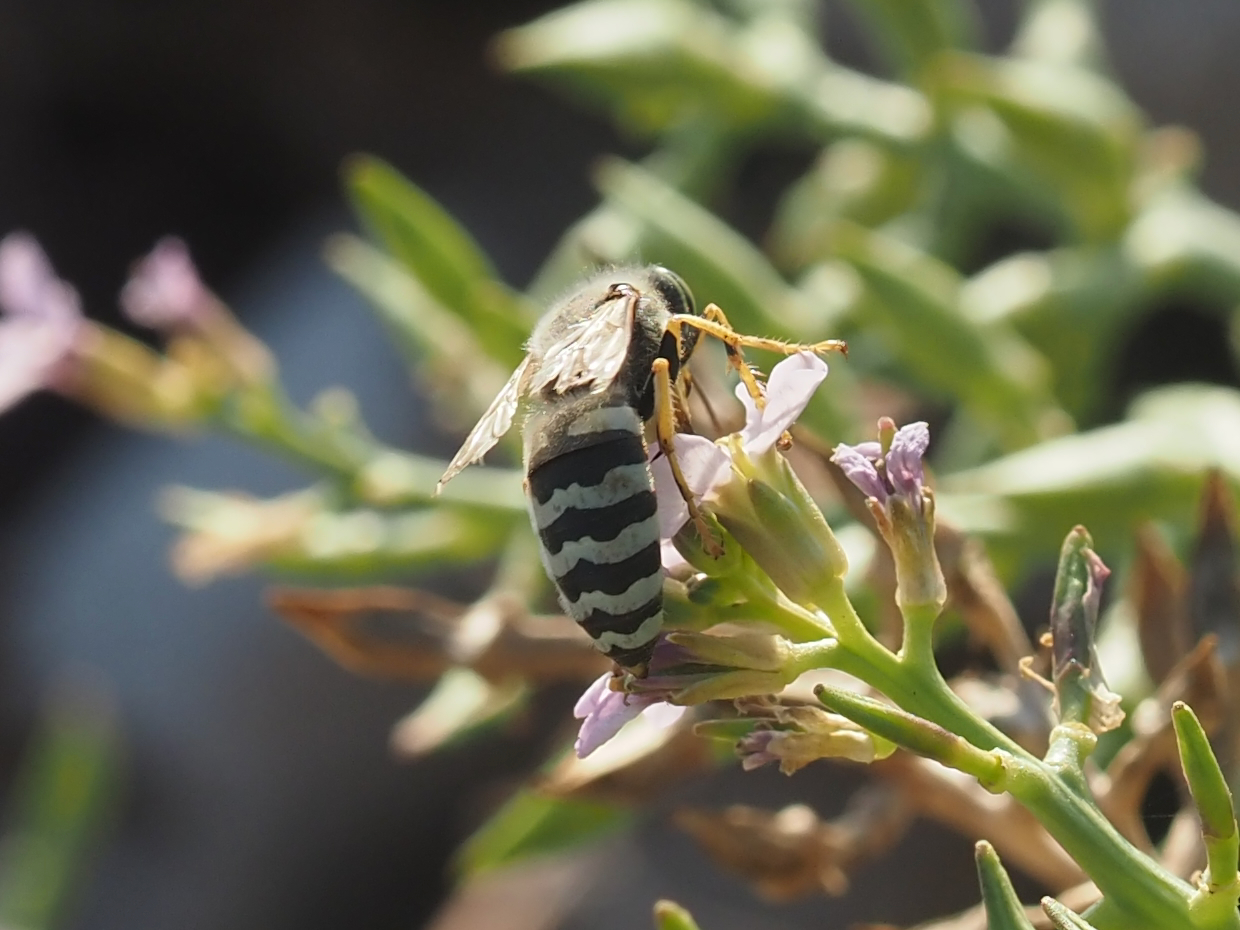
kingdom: Animalia
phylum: Arthropoda
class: Insecta
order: Hymenoptera
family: Crabronidae
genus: Bembix
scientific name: Bembix americana
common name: American sand wasp
